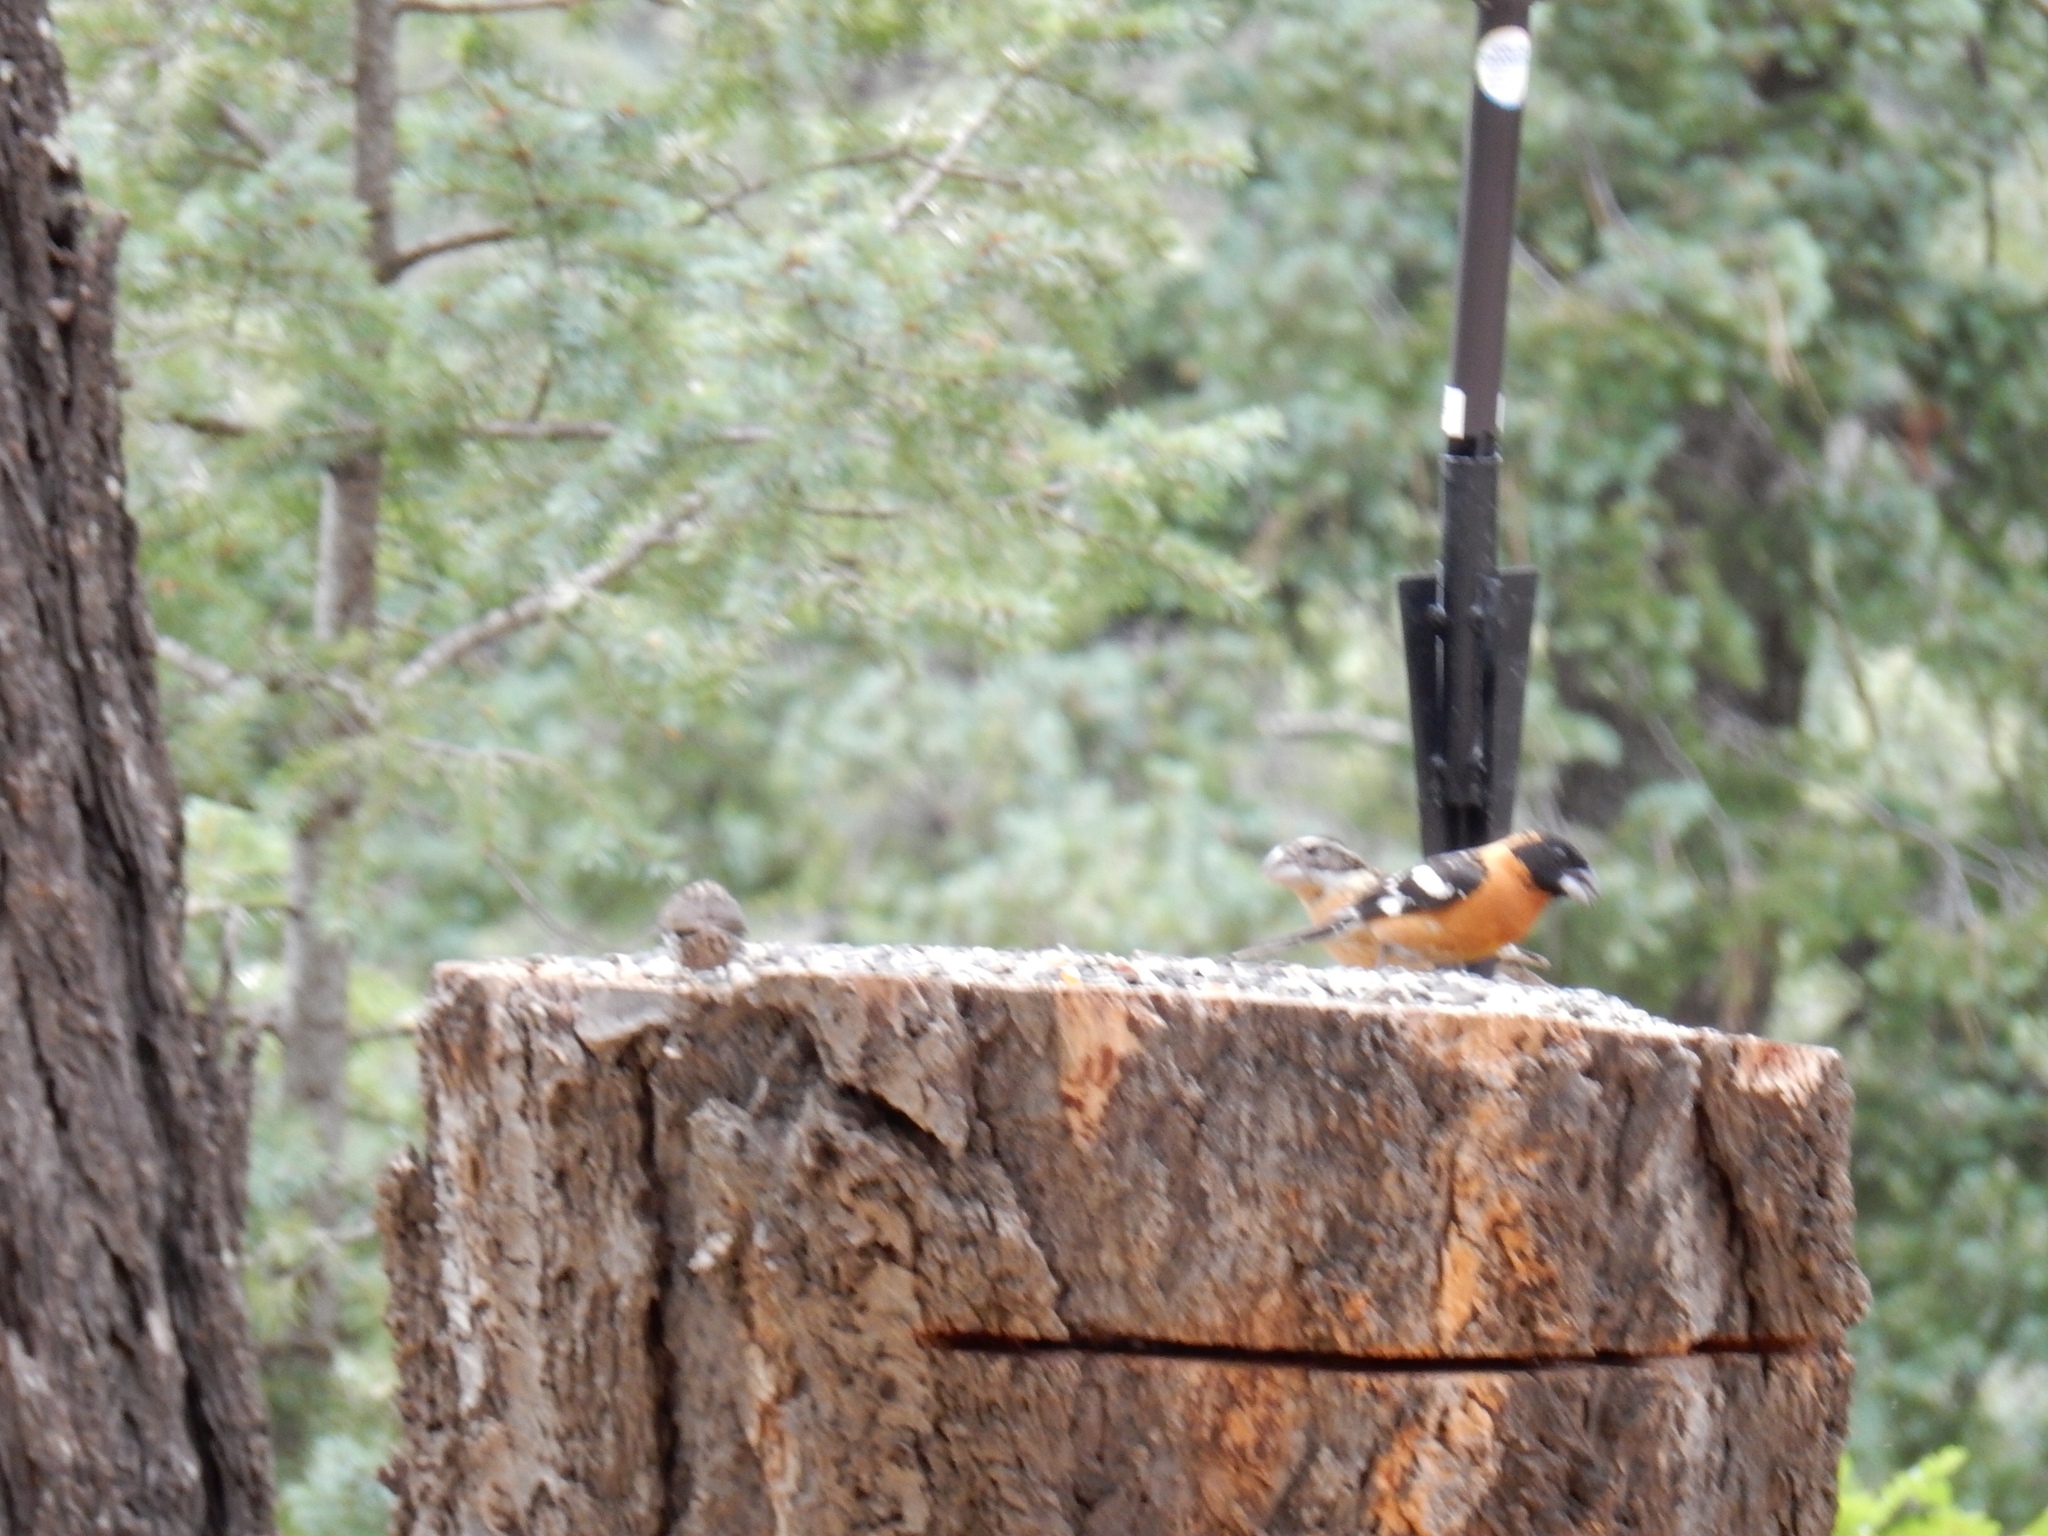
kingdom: Animalia
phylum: Chordata
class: Aves
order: Passeriformes
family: Cardinalidae
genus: Pheucticus
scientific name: Pheucticus melanocephalus
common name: Black-headed grosbeak
